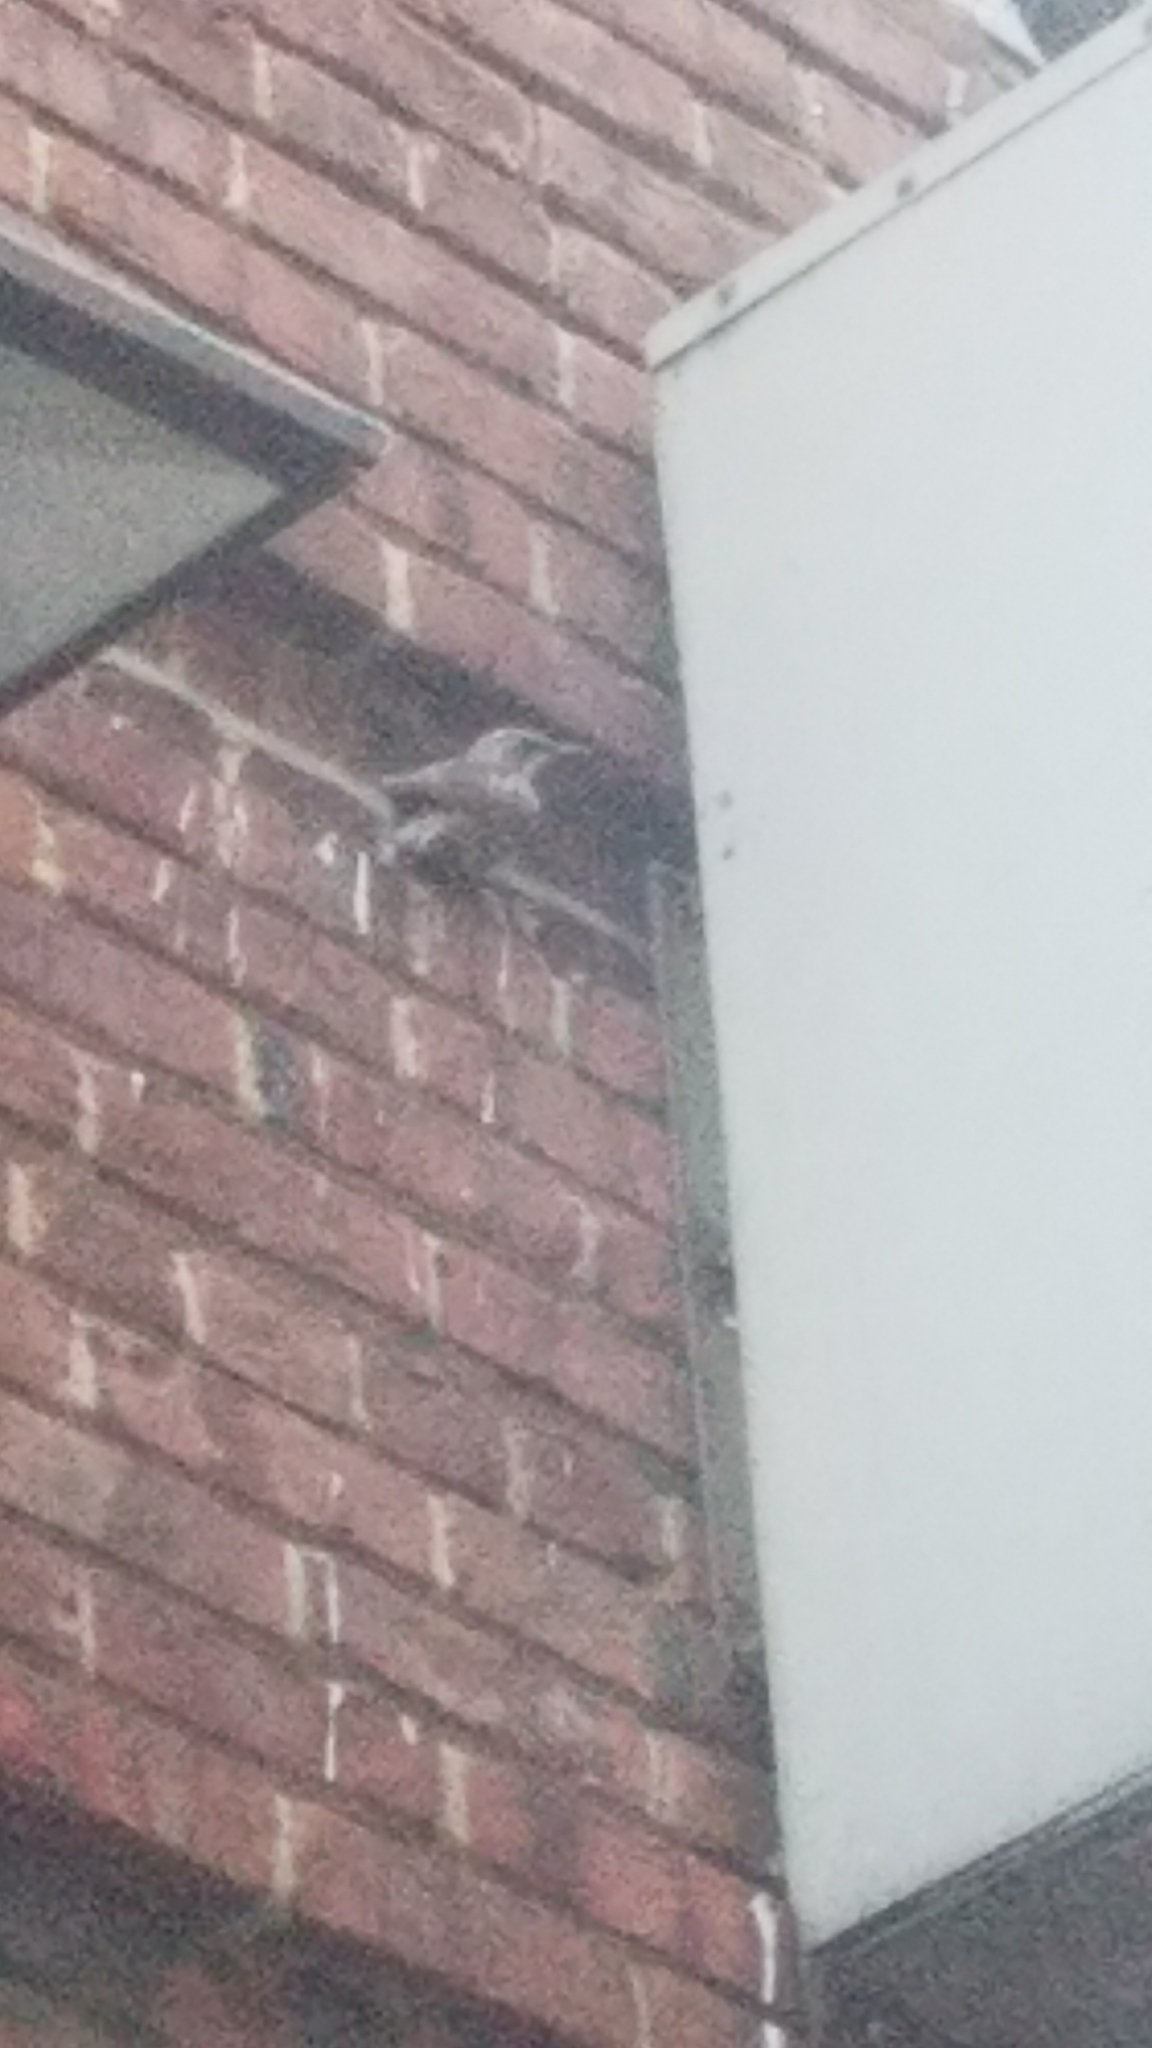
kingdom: Animalia
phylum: Chordata
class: Aves
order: Passeriformes
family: Sturnidae
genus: Sturnus
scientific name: Sturnus vulgaris
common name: Common starling
